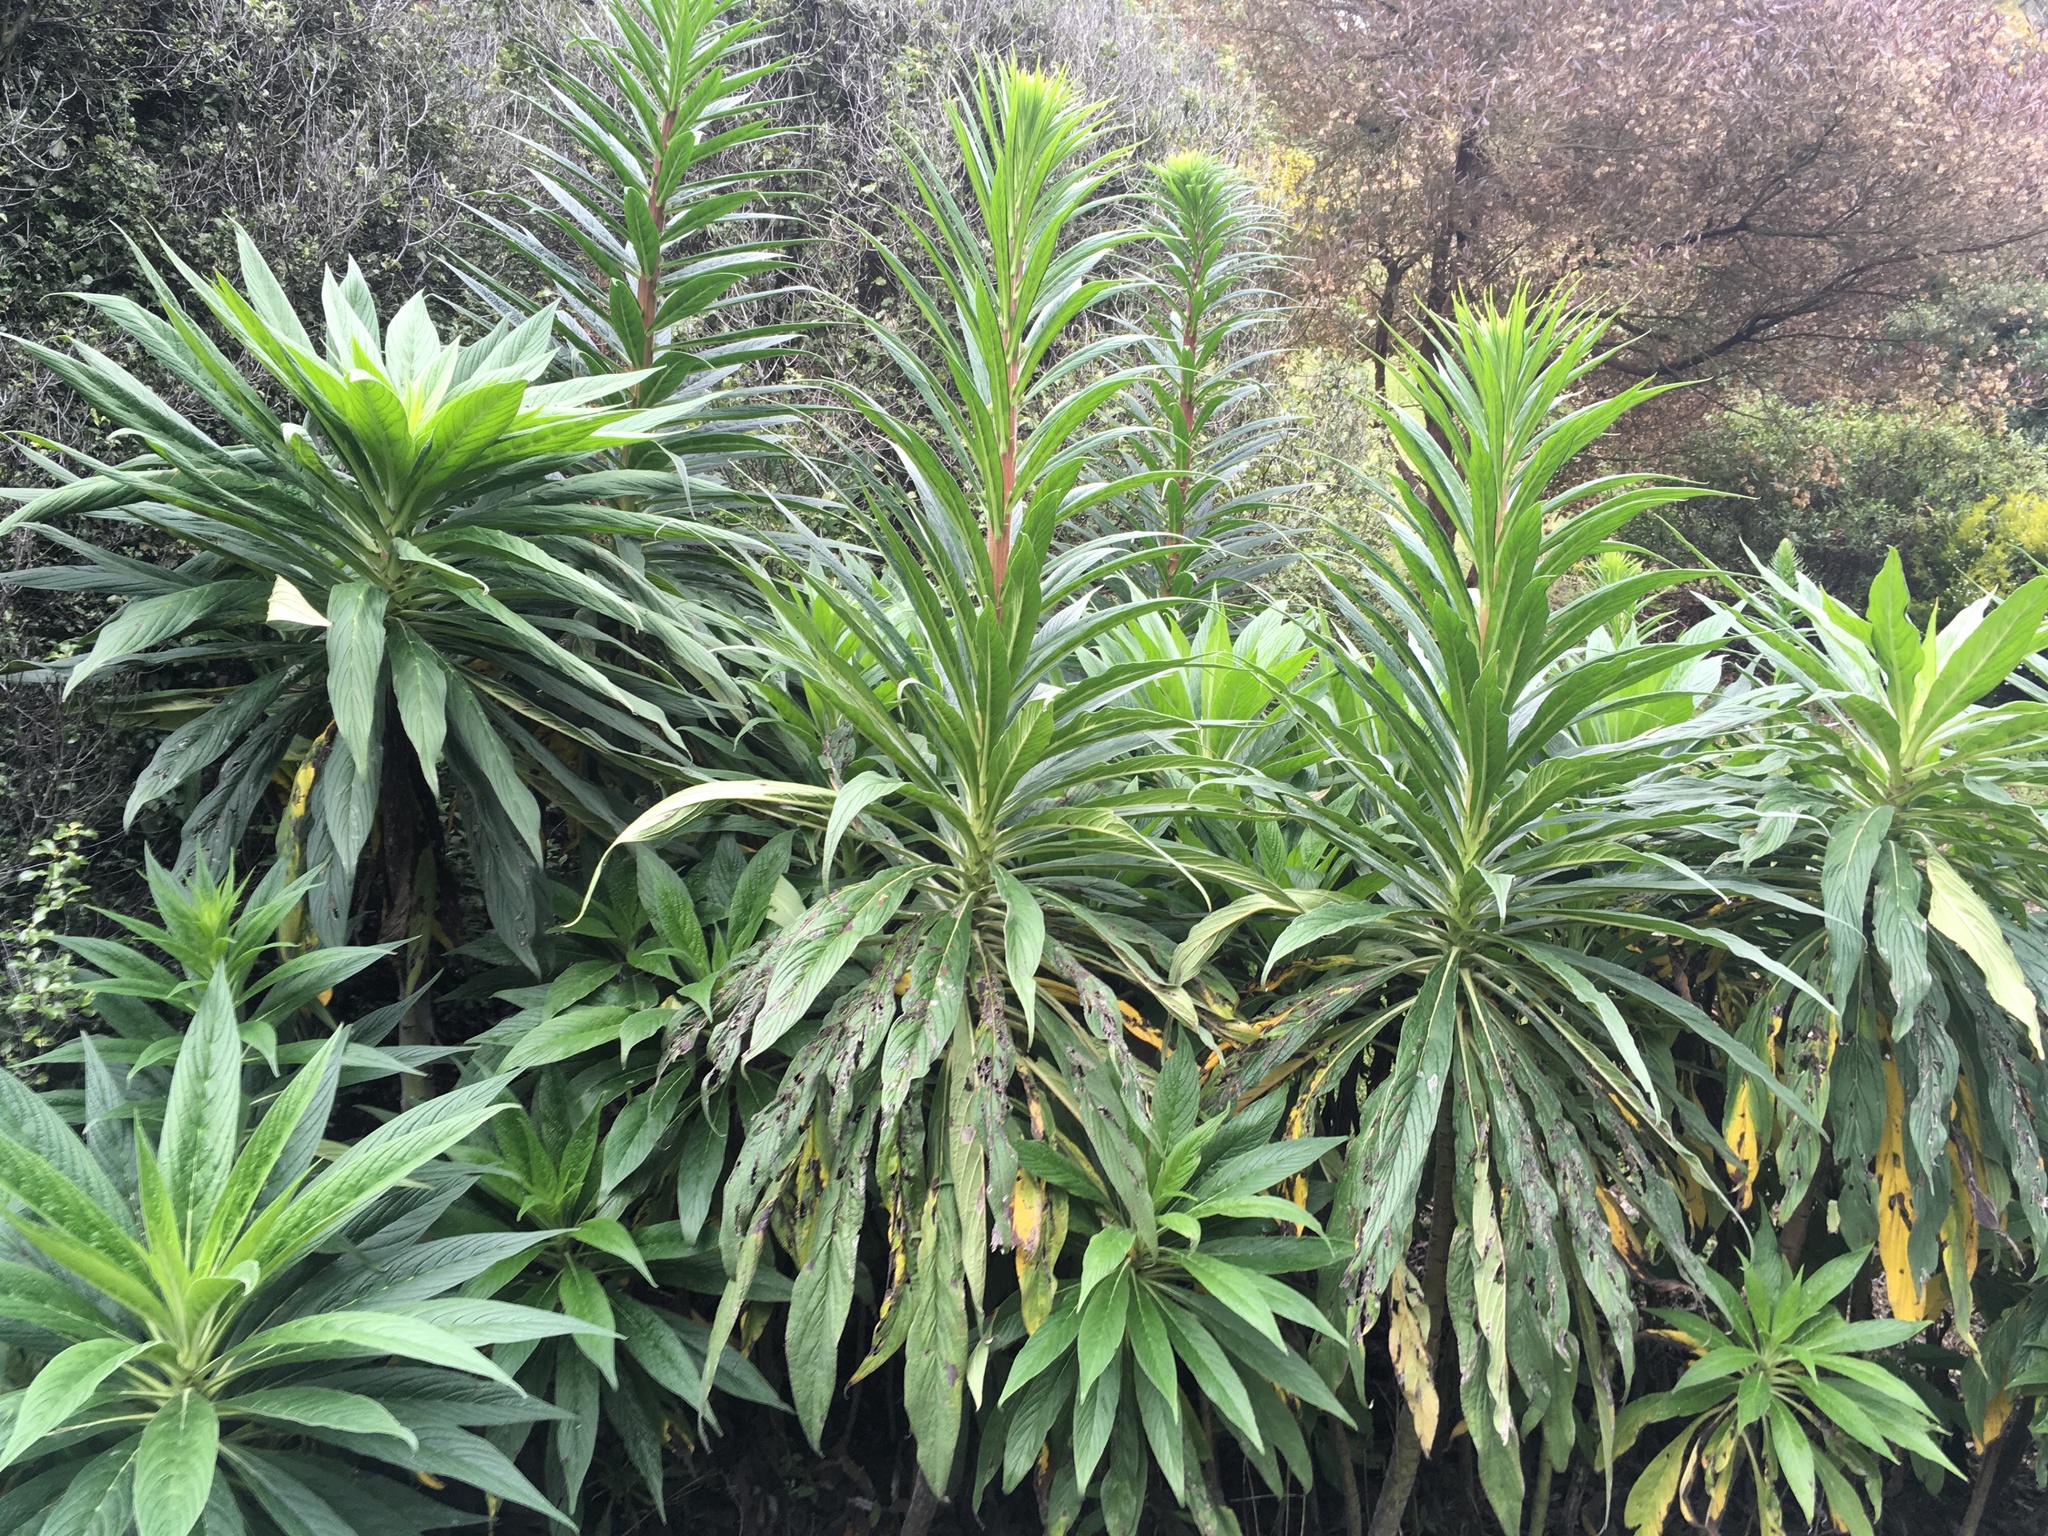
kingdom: Plantae
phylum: Tracheophyta
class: Magnoliopsida
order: Boraginales
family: Boraginaceae
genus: Echium
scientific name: Echium pininana
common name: Giant viper's-bugloss
